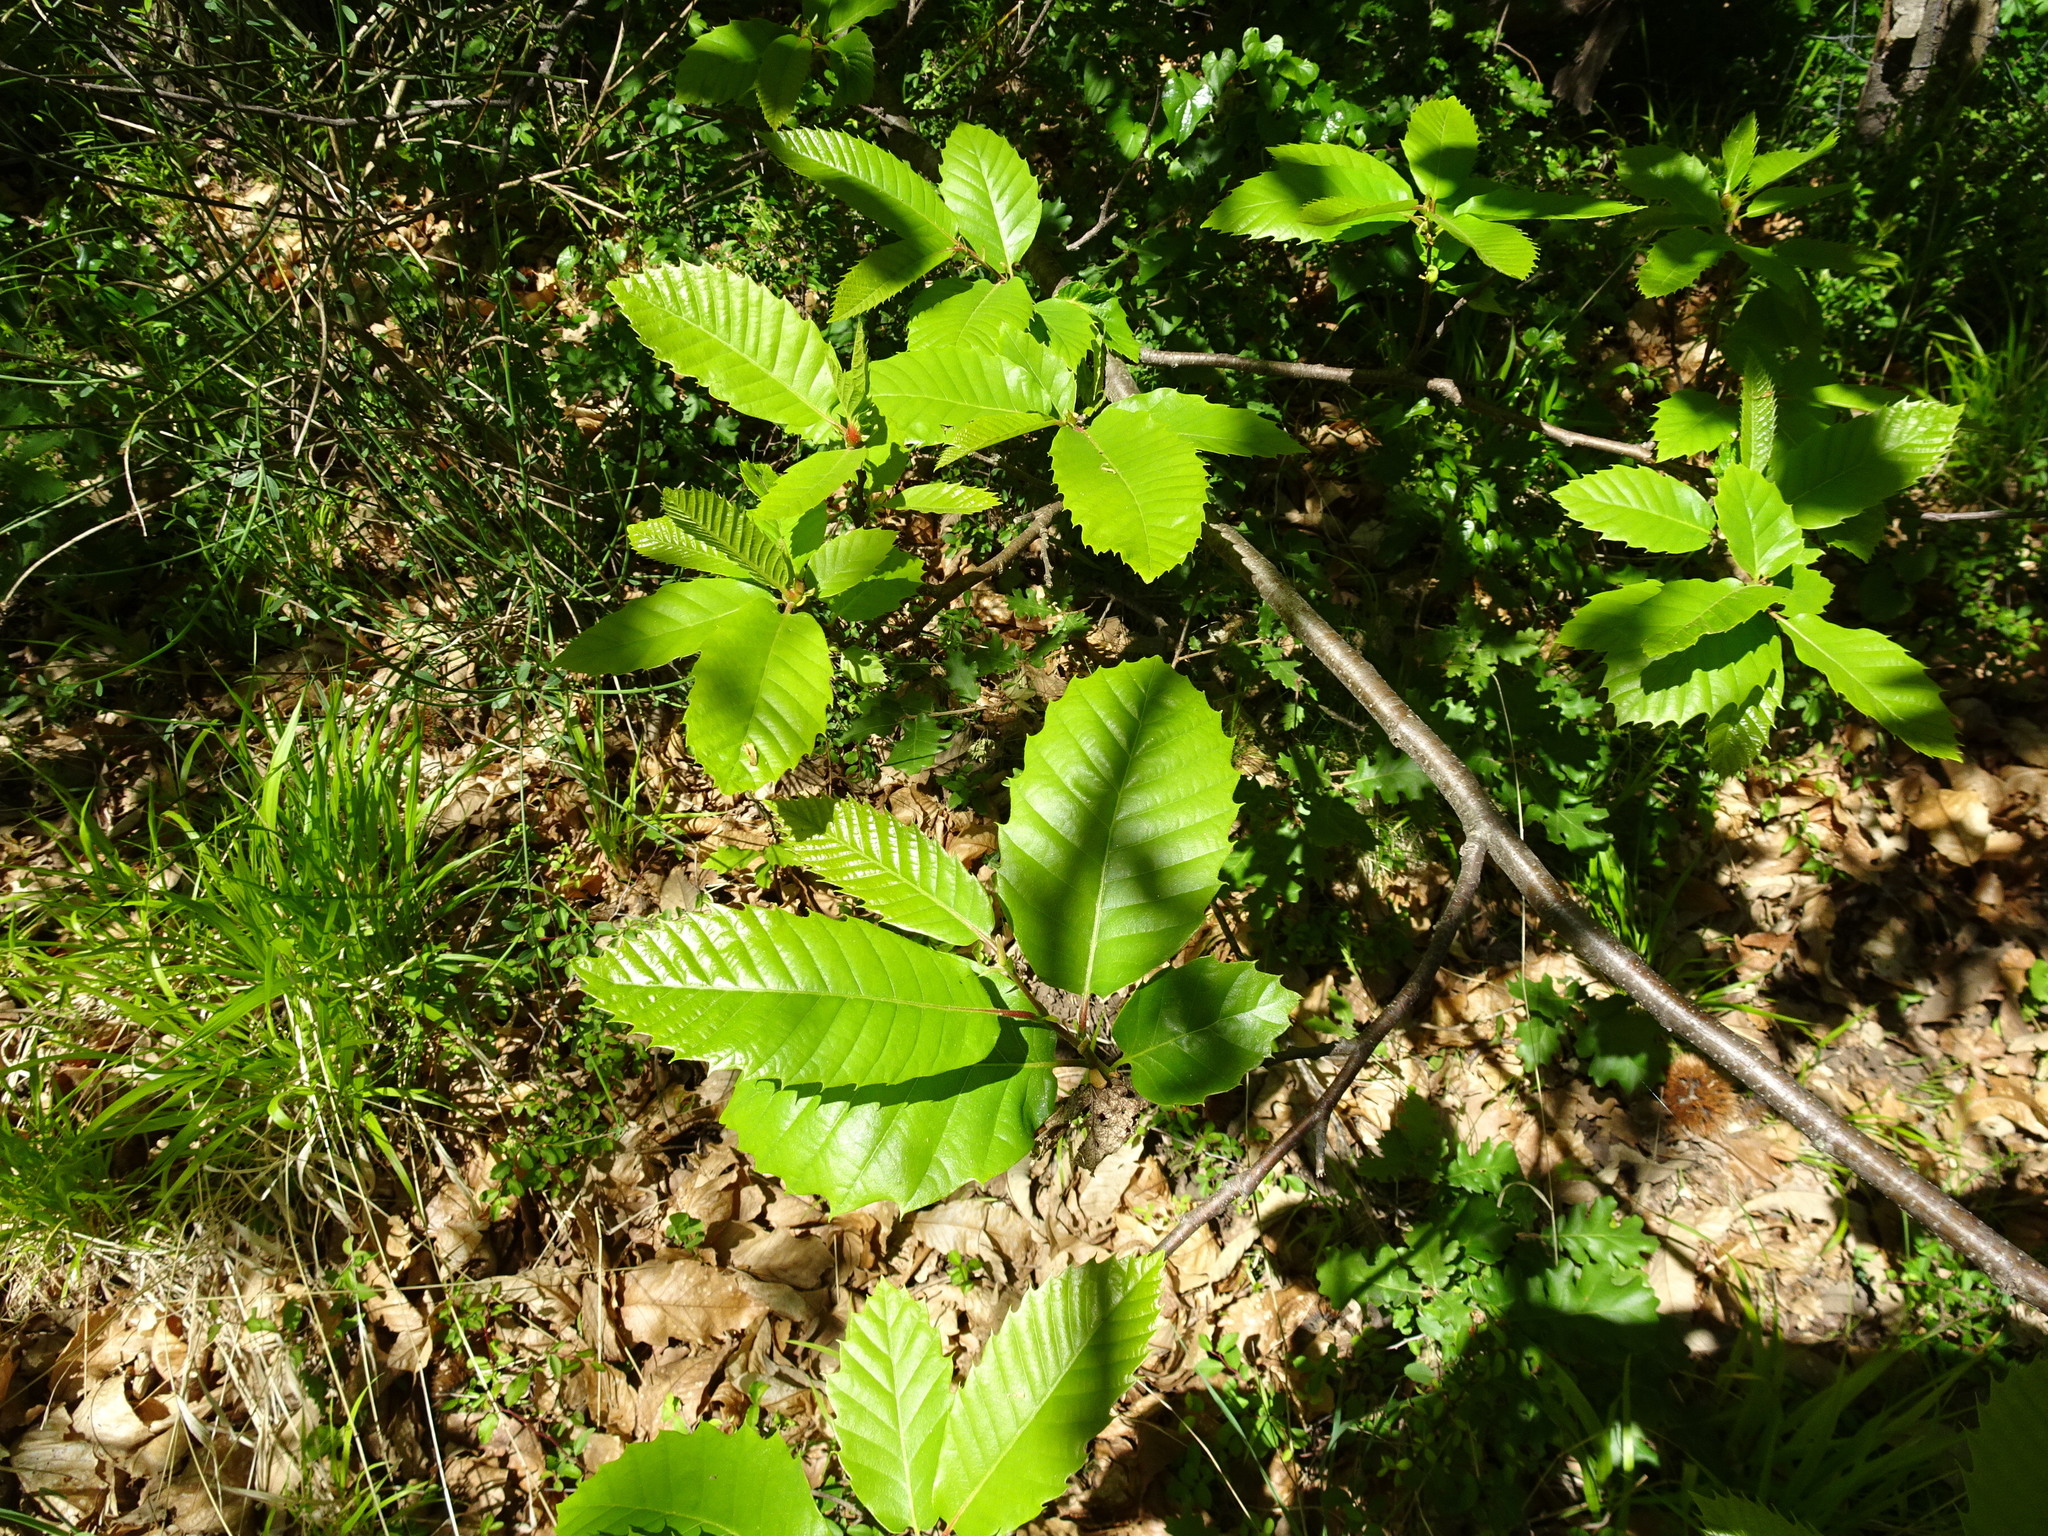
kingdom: Plantae
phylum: Tracheophyta
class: Magnoliopsida
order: Fagales
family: Fagaceae
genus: Castanea
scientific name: Castanea sativa
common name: Sweet chestnut
